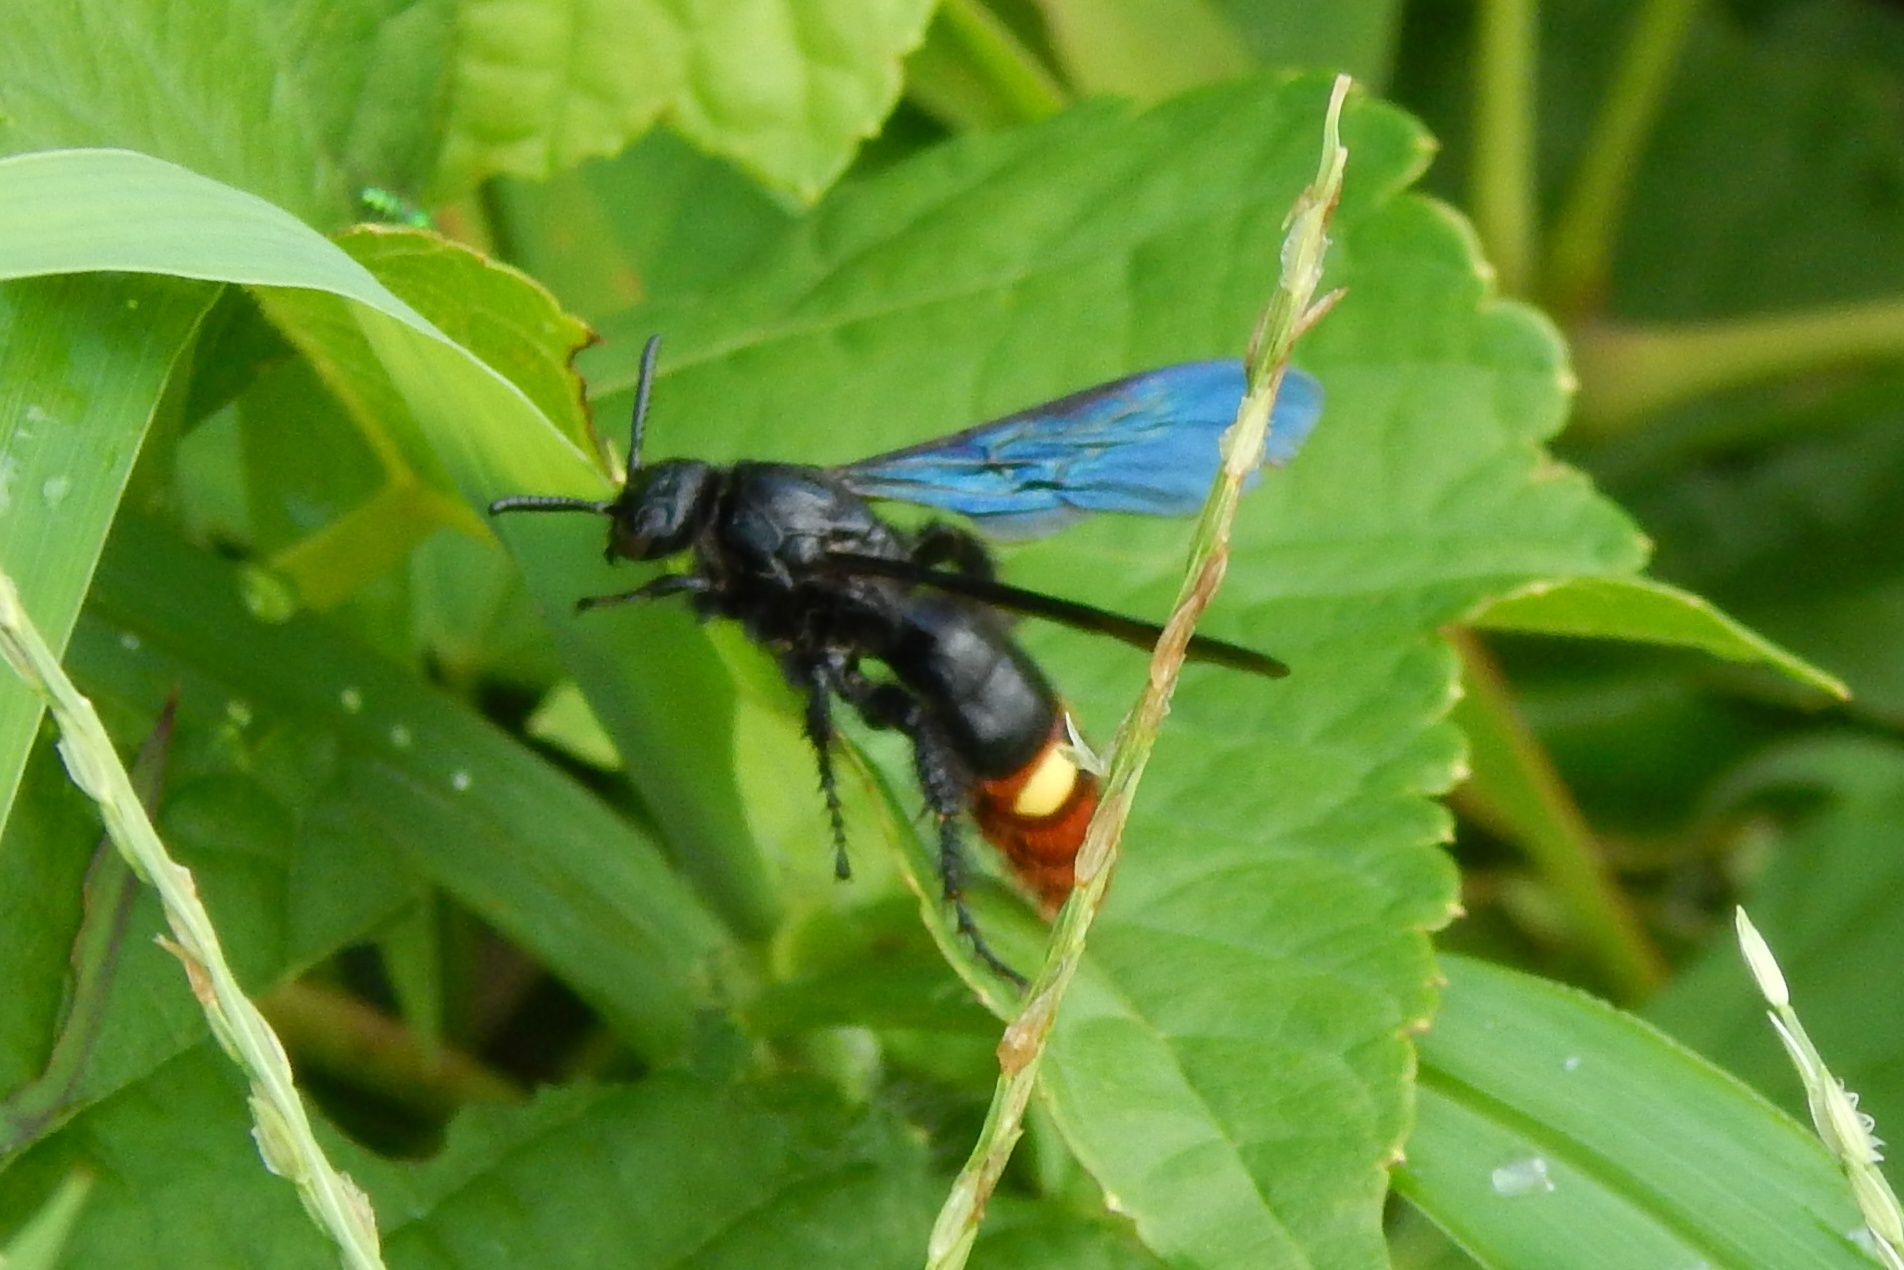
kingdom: Animalia
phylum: Arthropoda
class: Insecta
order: Hymenoptera
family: Scoliidae
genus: Scolia
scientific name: Scolia dubia
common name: Blue-winged scoliid wasp
